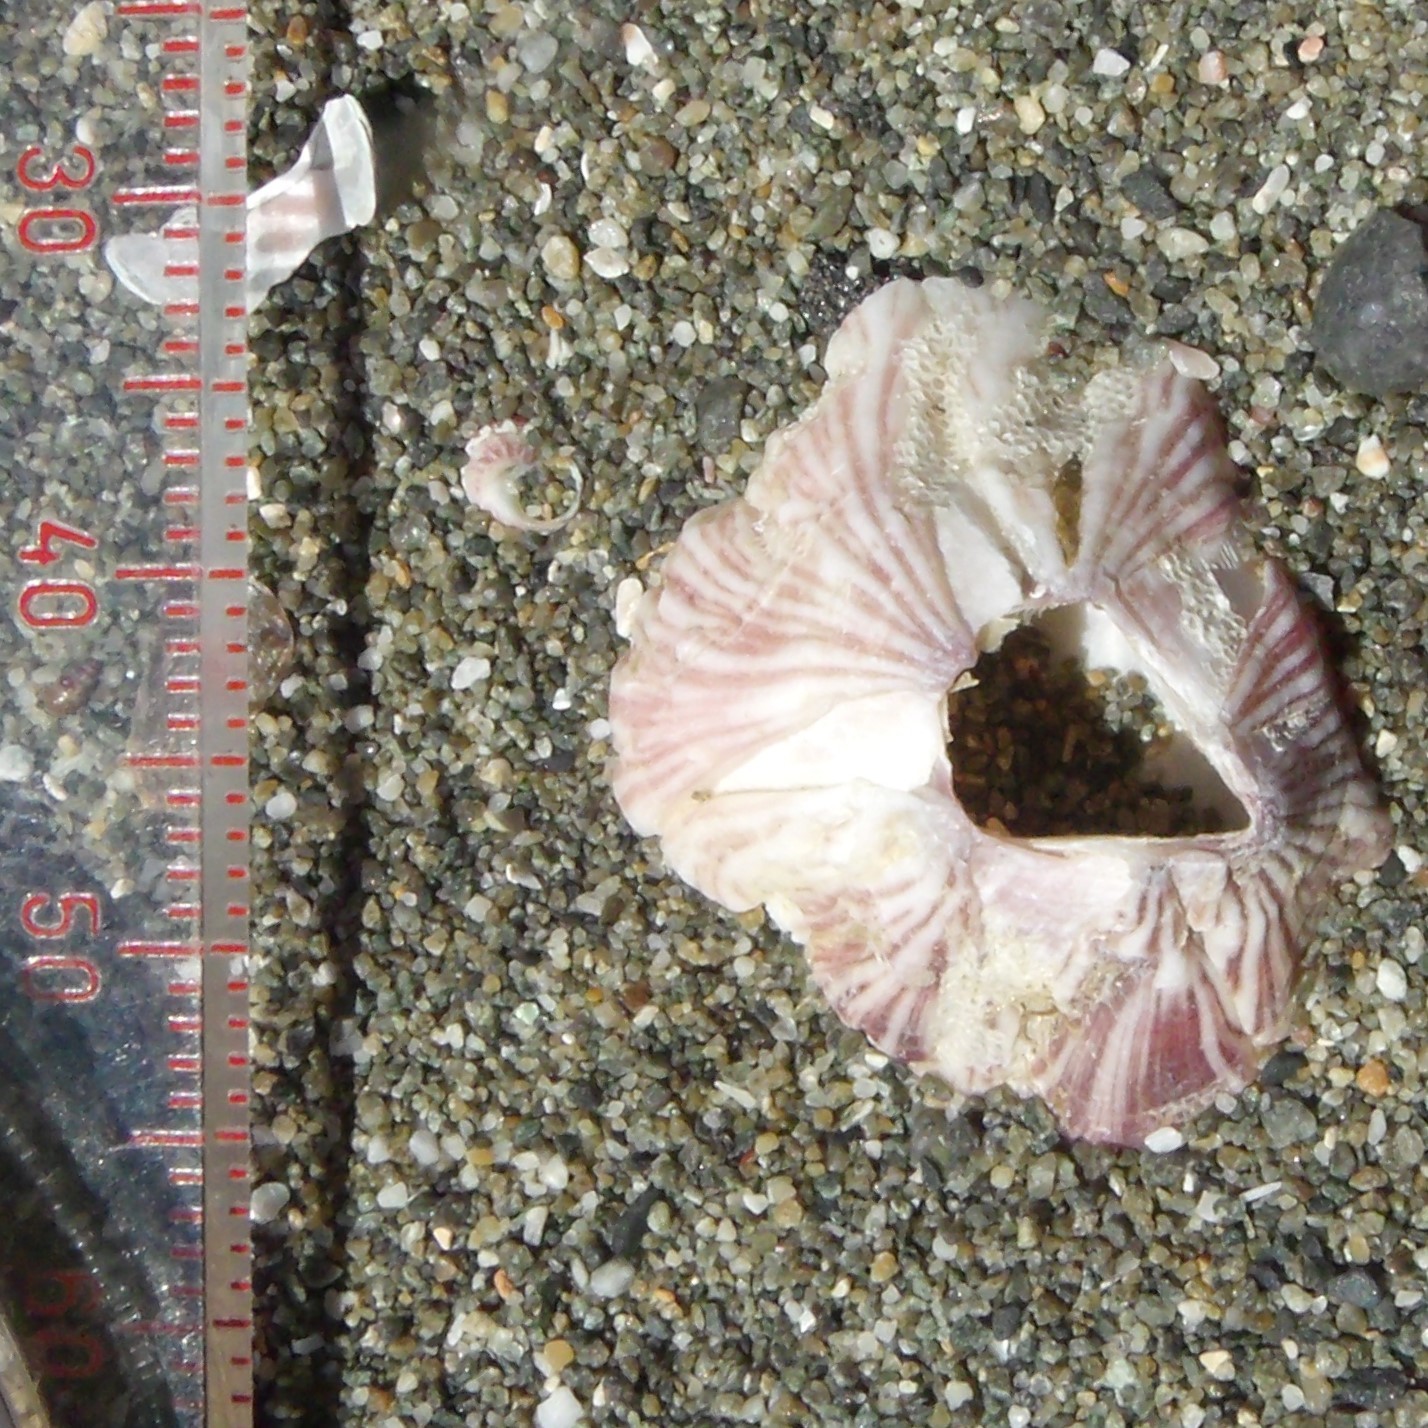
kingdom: Animalia
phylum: Arthropoda
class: Maxillopoda
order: Sessilia
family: Balanidae
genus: Balanus
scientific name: Balanus trigonus
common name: Triangle barnacle
